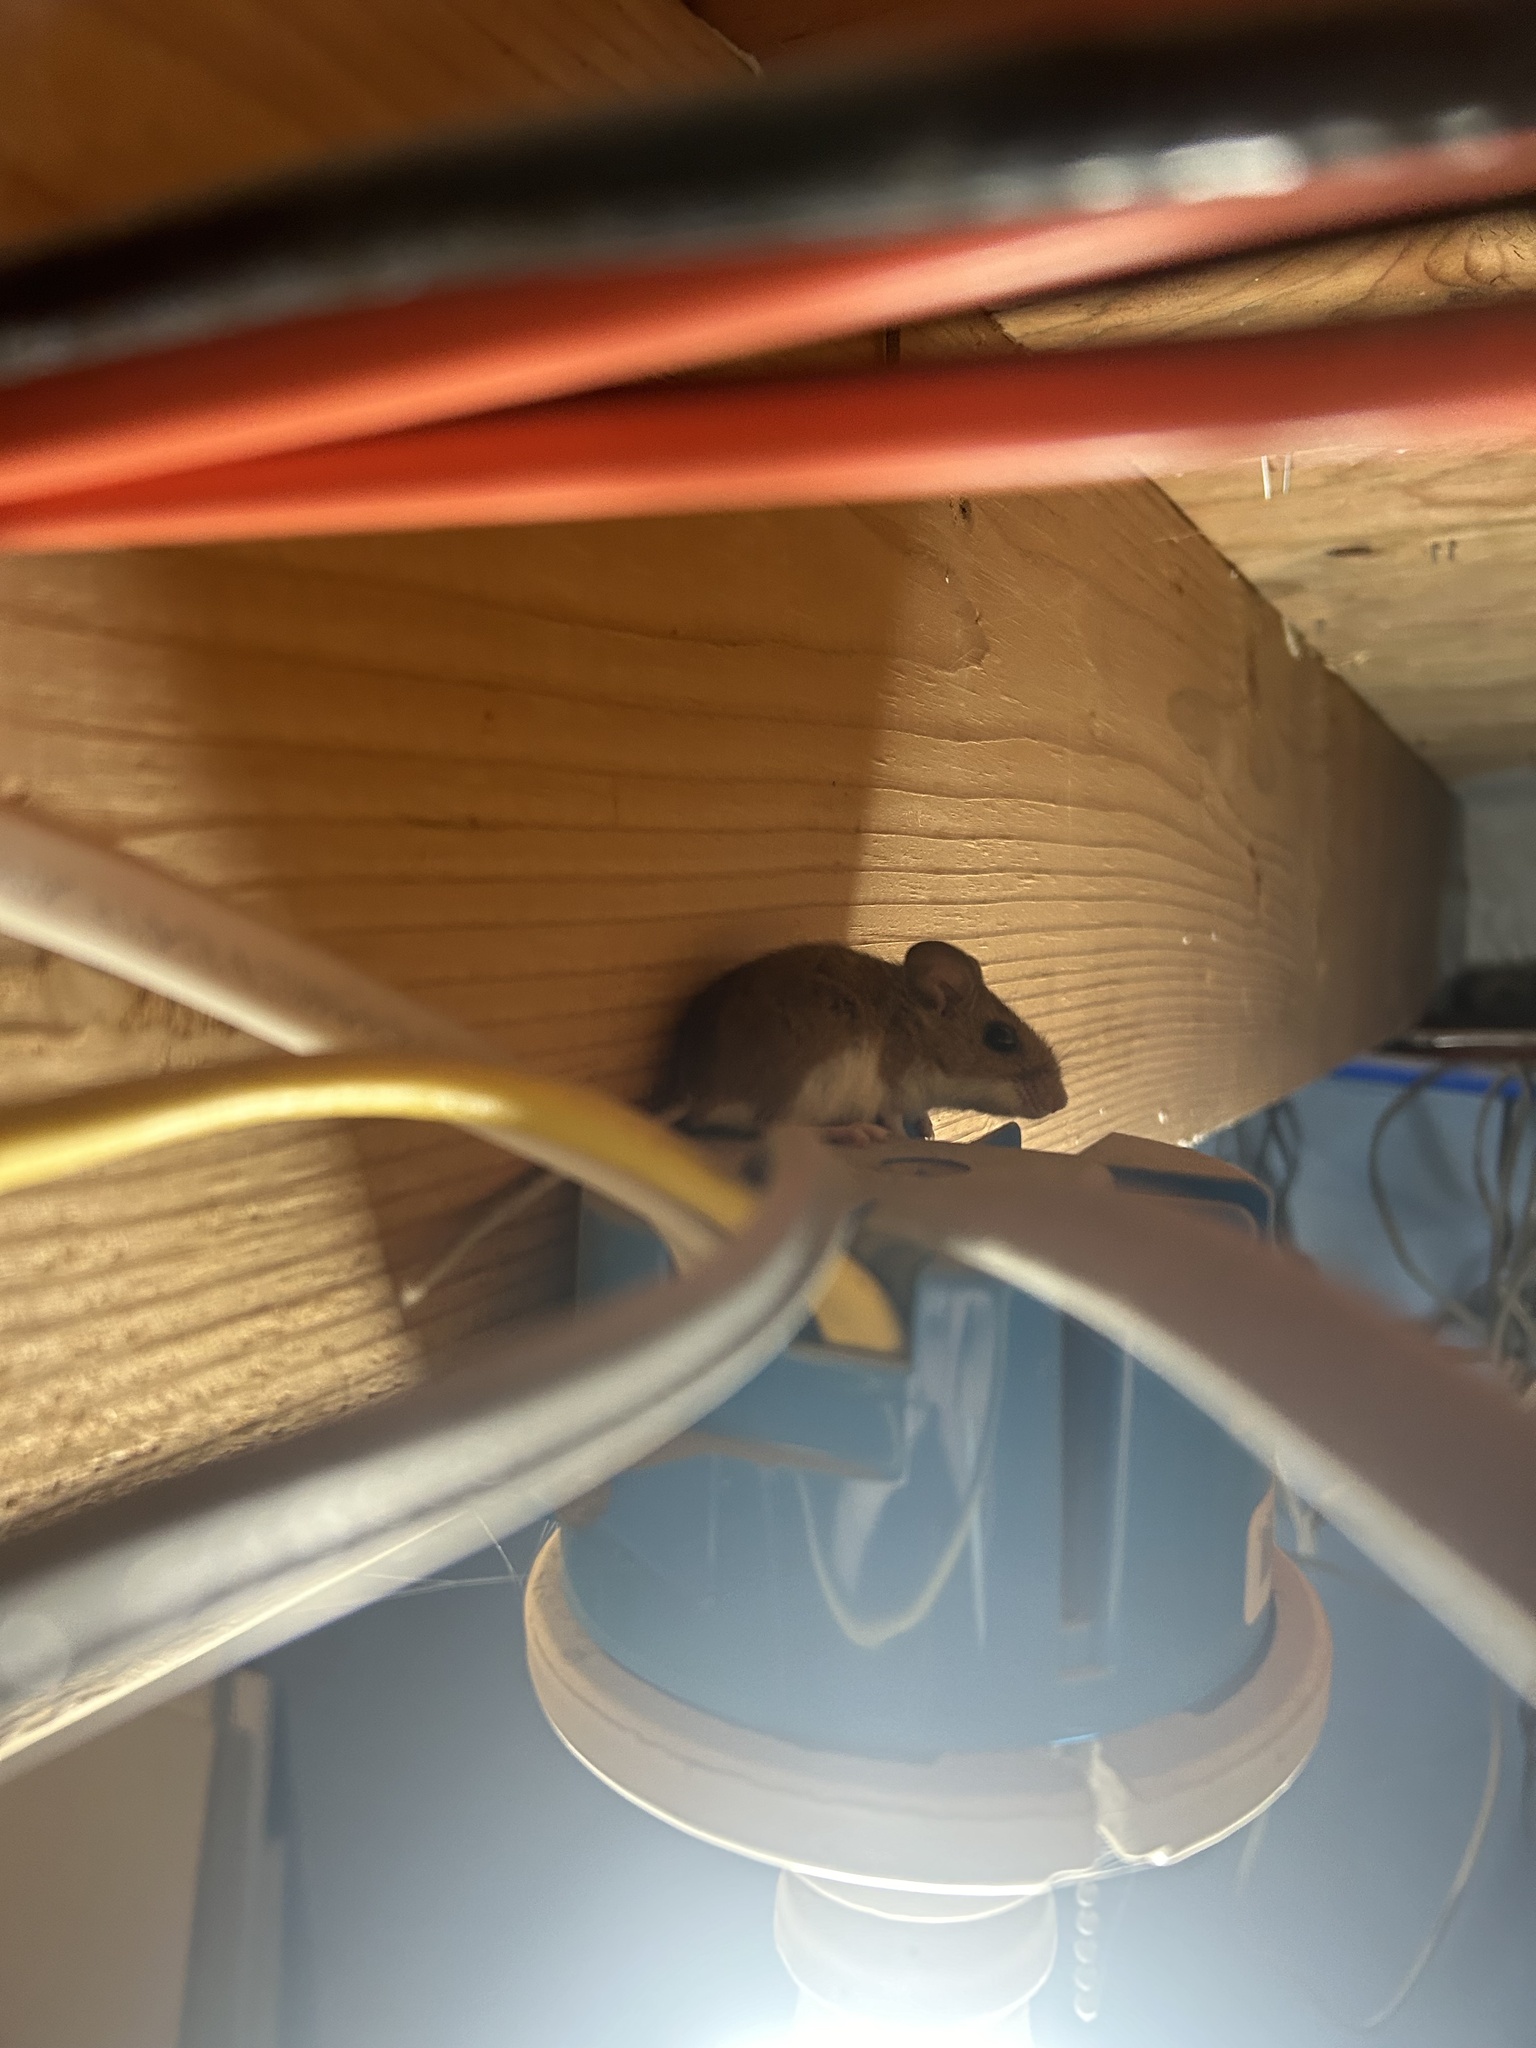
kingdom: Animalia
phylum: Chordata
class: Mammalia
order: Rodentia
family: Cricetidae
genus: Peromyscus
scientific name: Peromyscus leucopus
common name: White-footed deermouse
